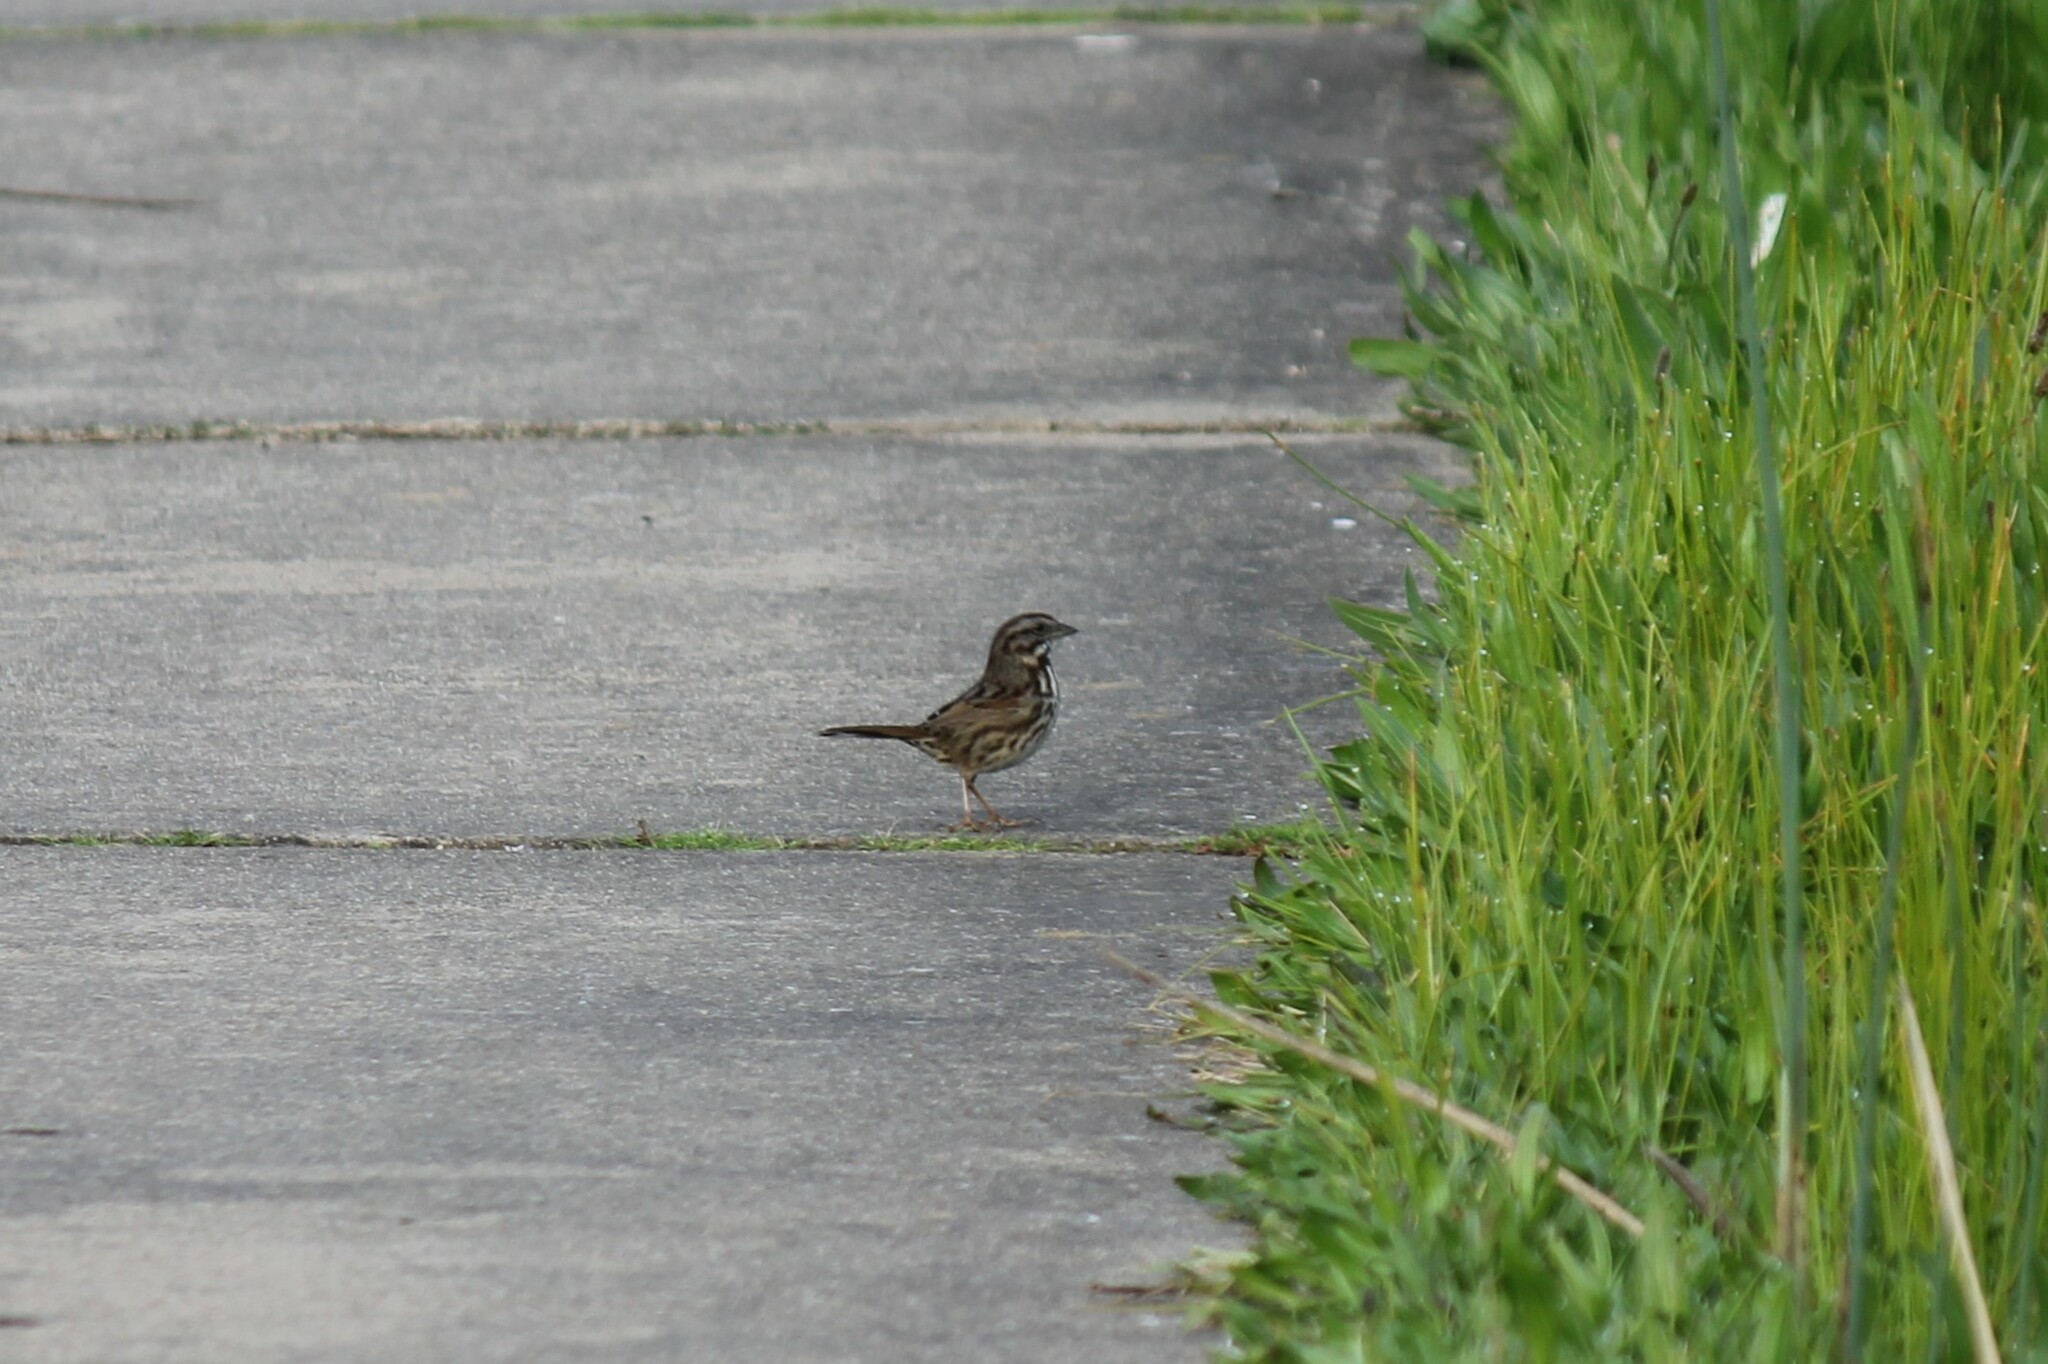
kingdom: Animalia
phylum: Chordata
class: Aves
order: Passeriformes
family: Passerellidae
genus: Melospiza
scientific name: Melospiza melodia
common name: Song sparrow
